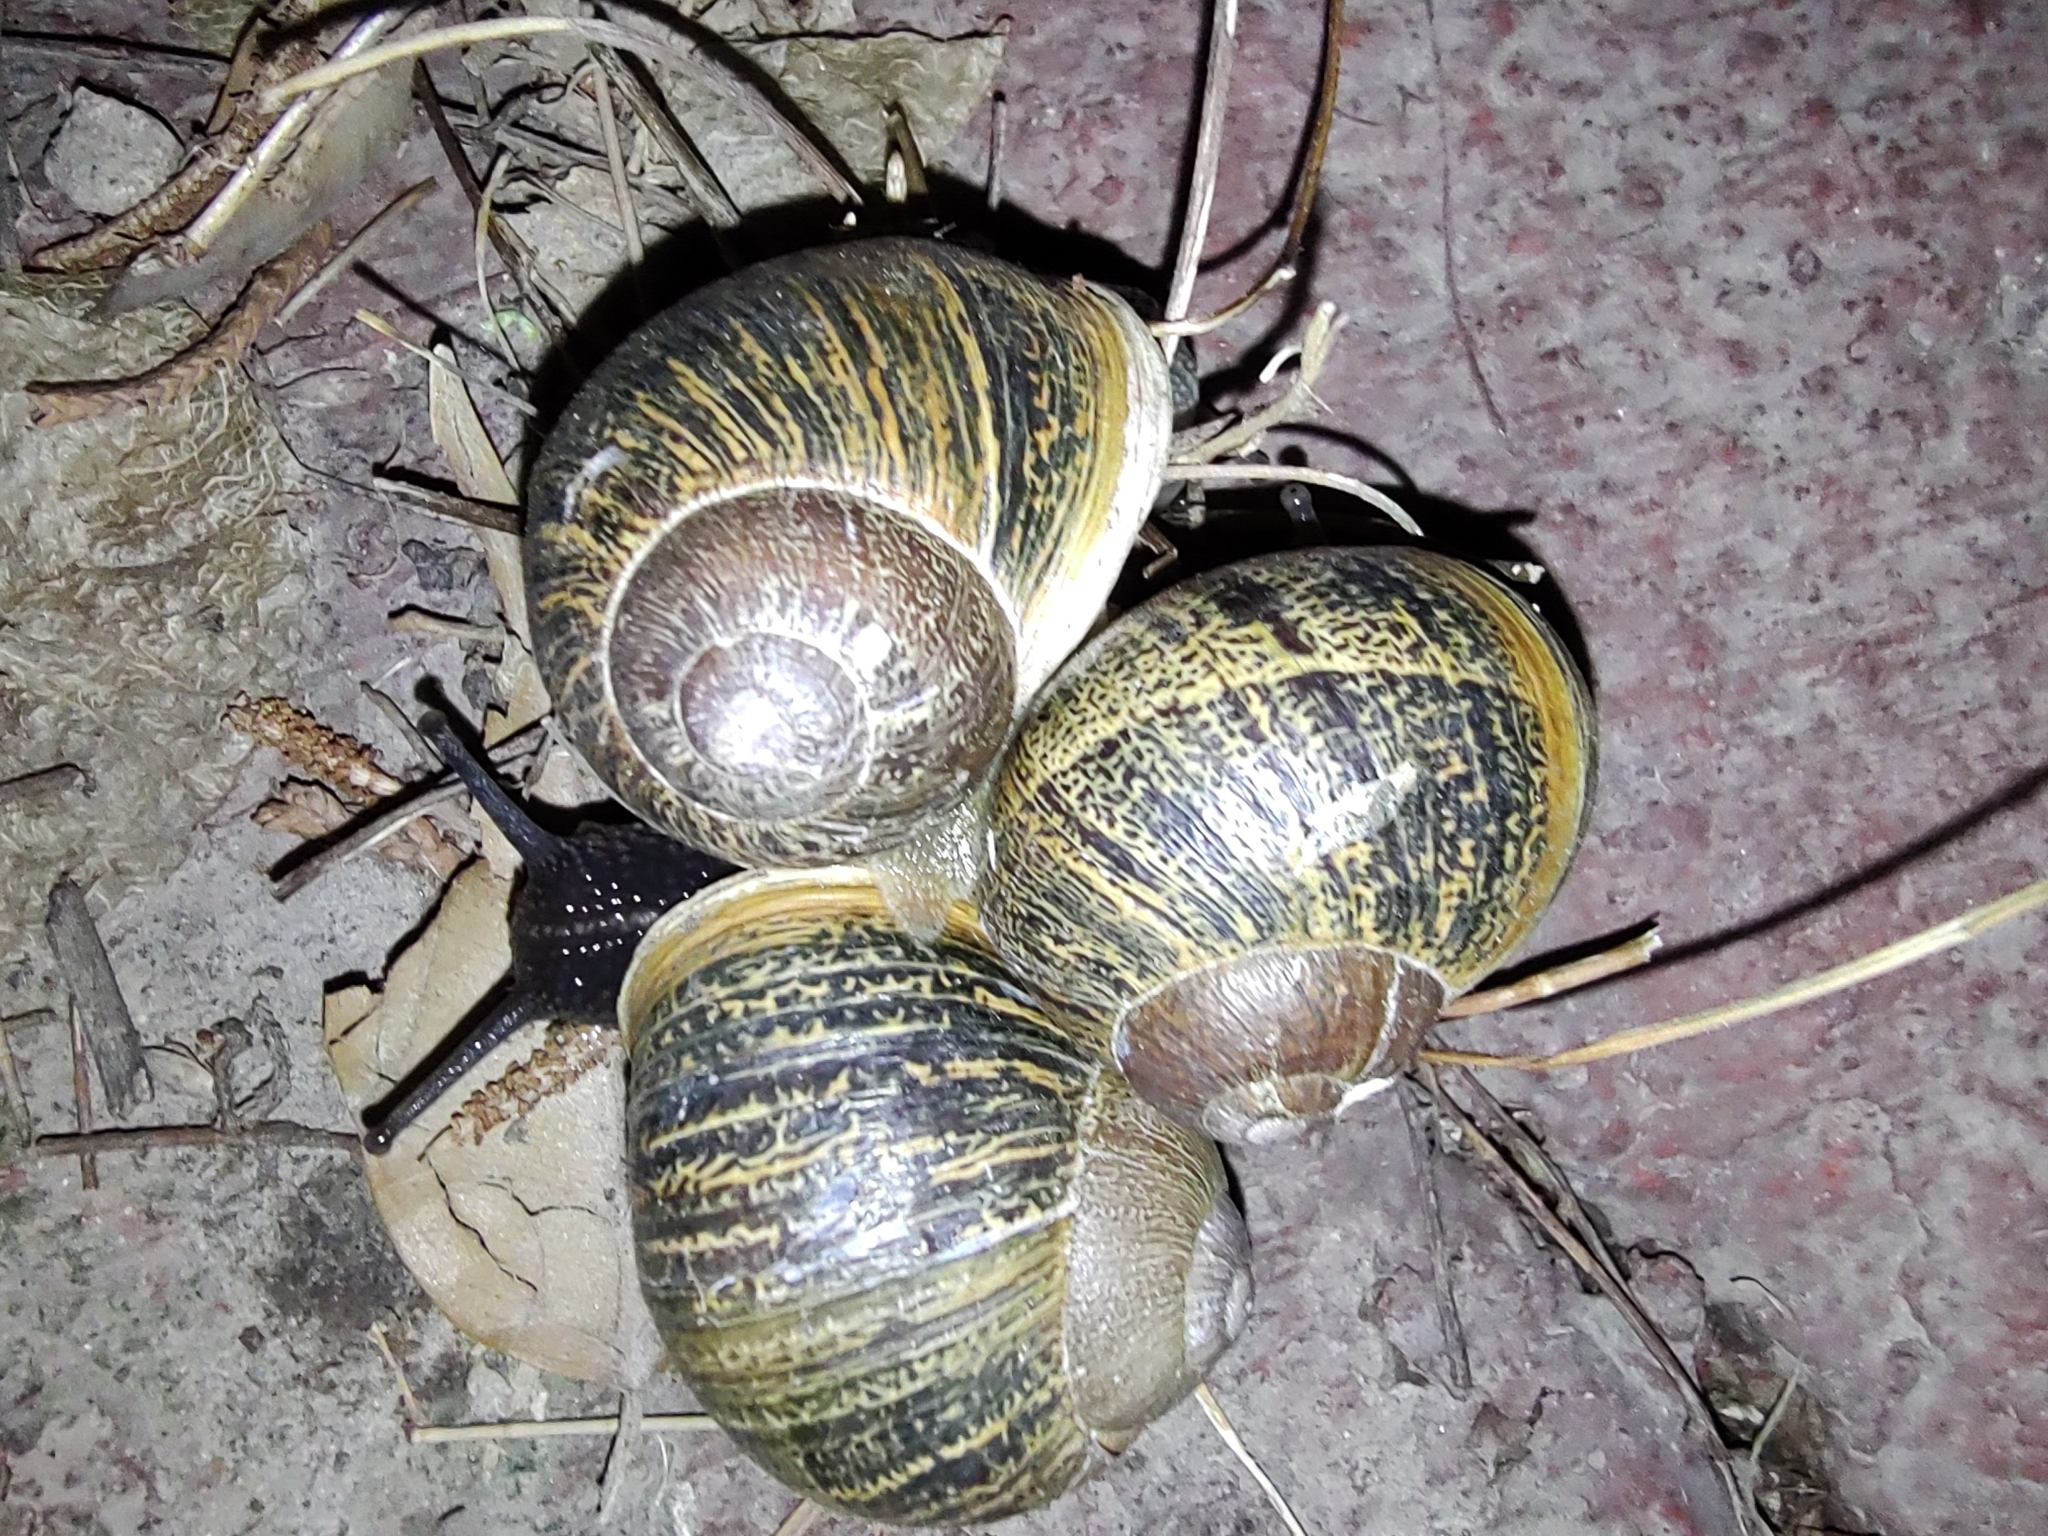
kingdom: Animalia
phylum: Mollusca
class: Gastropoda
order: Stylommatophora
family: Helicidae
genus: Cornu
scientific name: Cornu aspersum
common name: Brown garden snail
